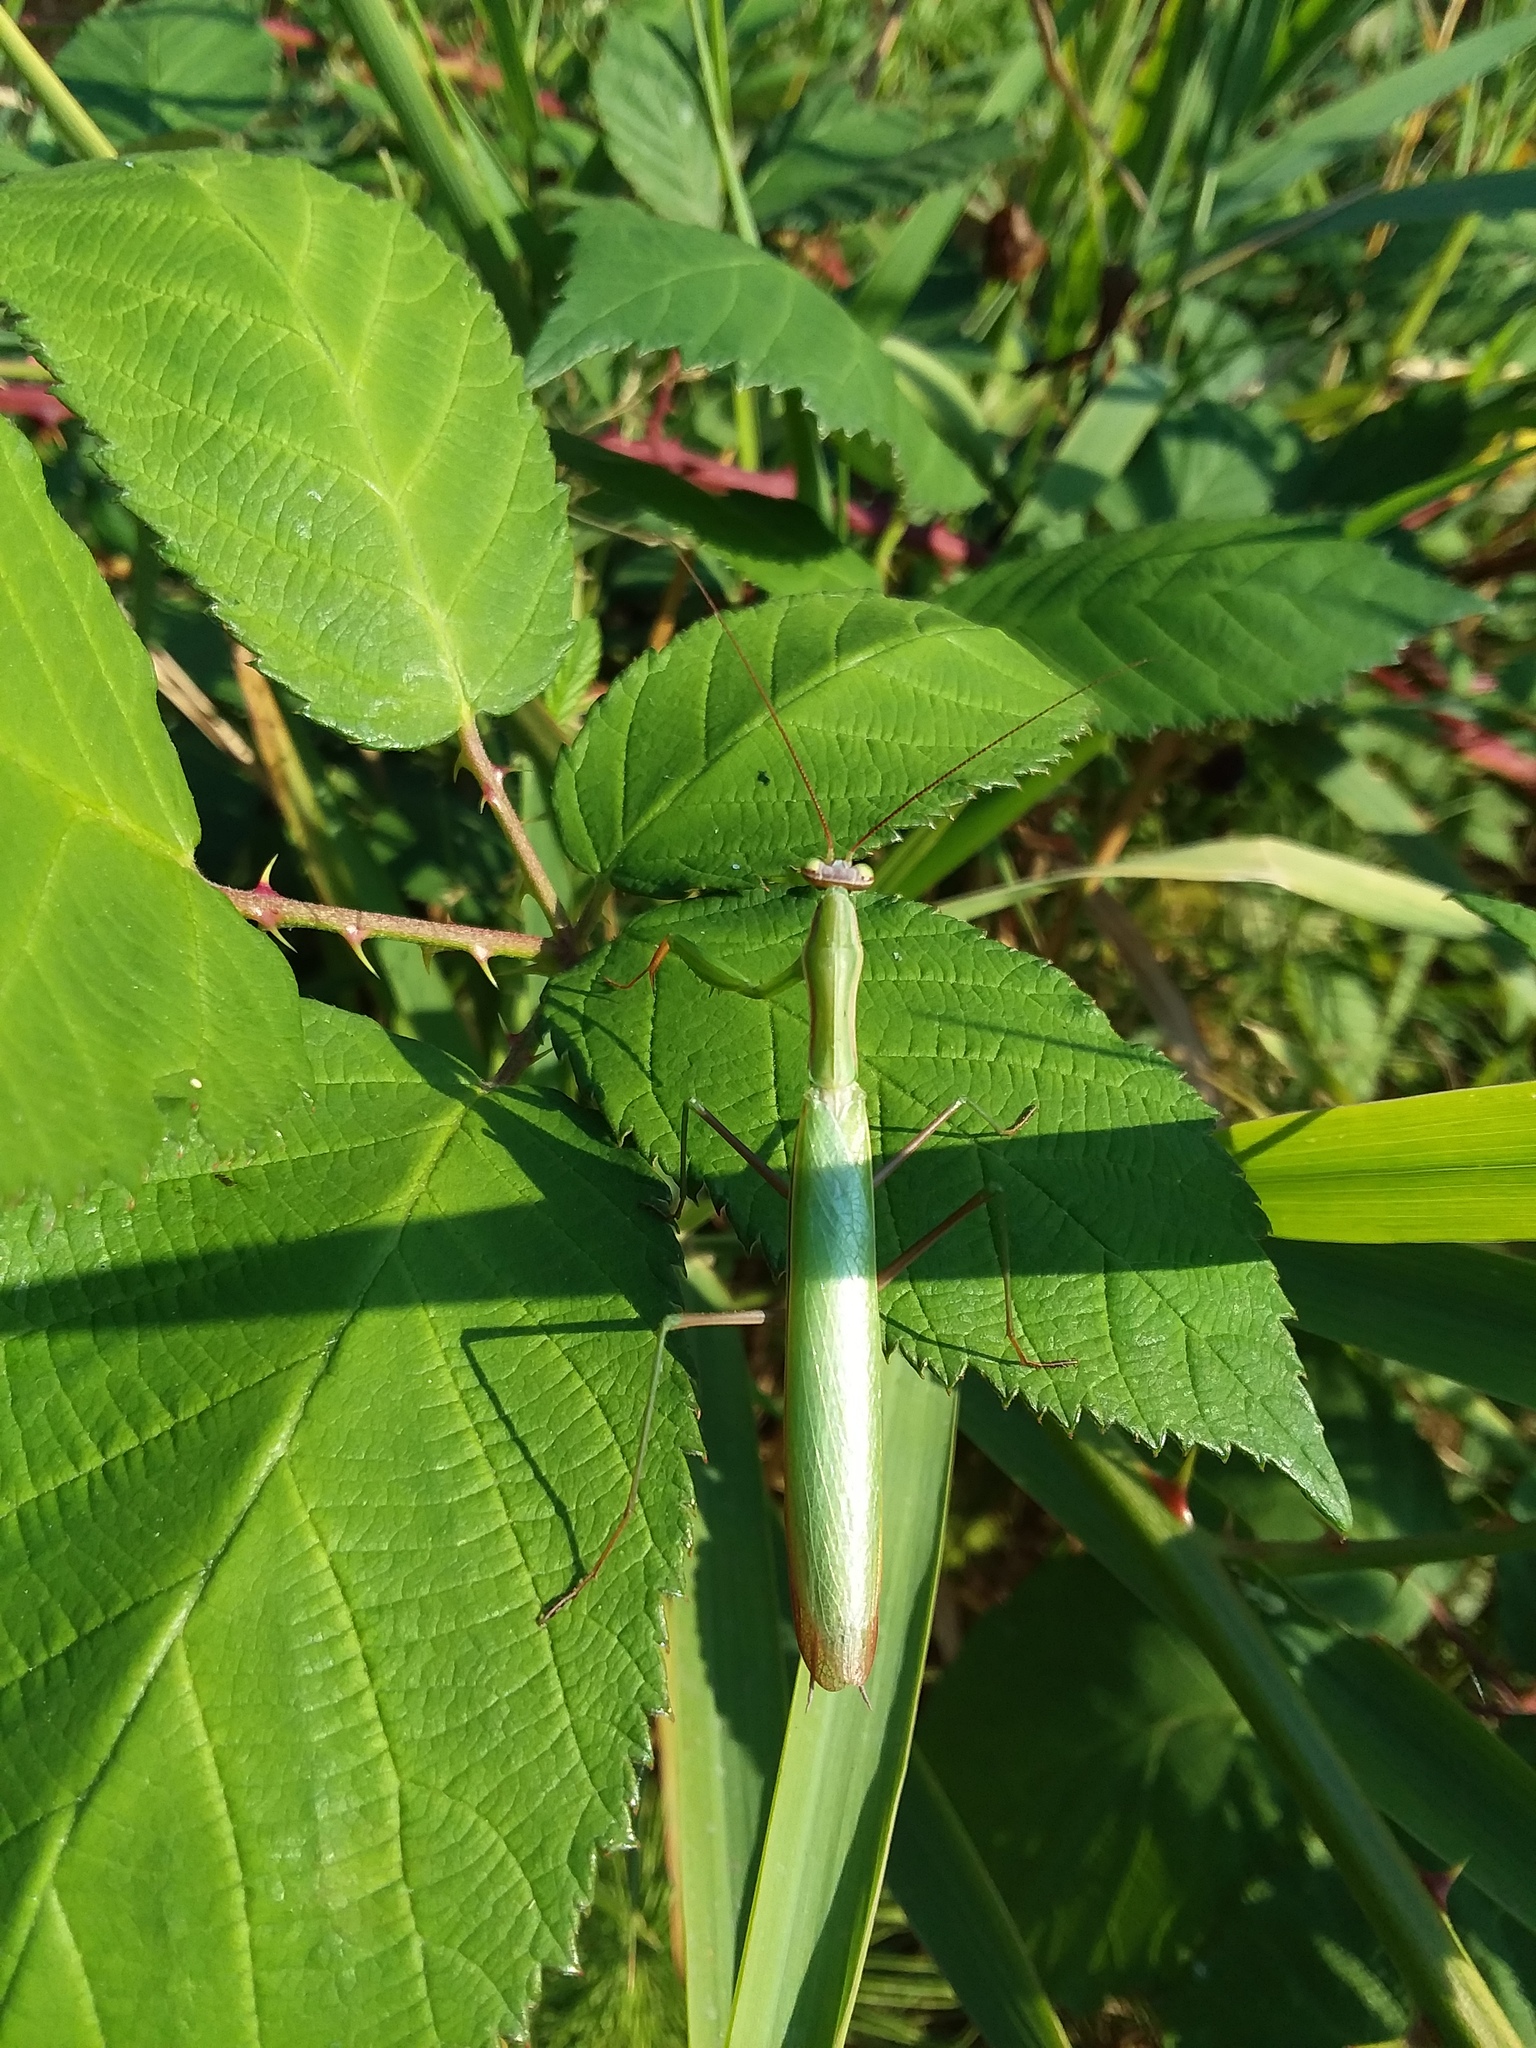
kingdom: Animalia
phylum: Arthropoda
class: Insecta
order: Mantodea
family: Mantidae
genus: Mantis
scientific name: Mantis religiosa
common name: Praying mantis
